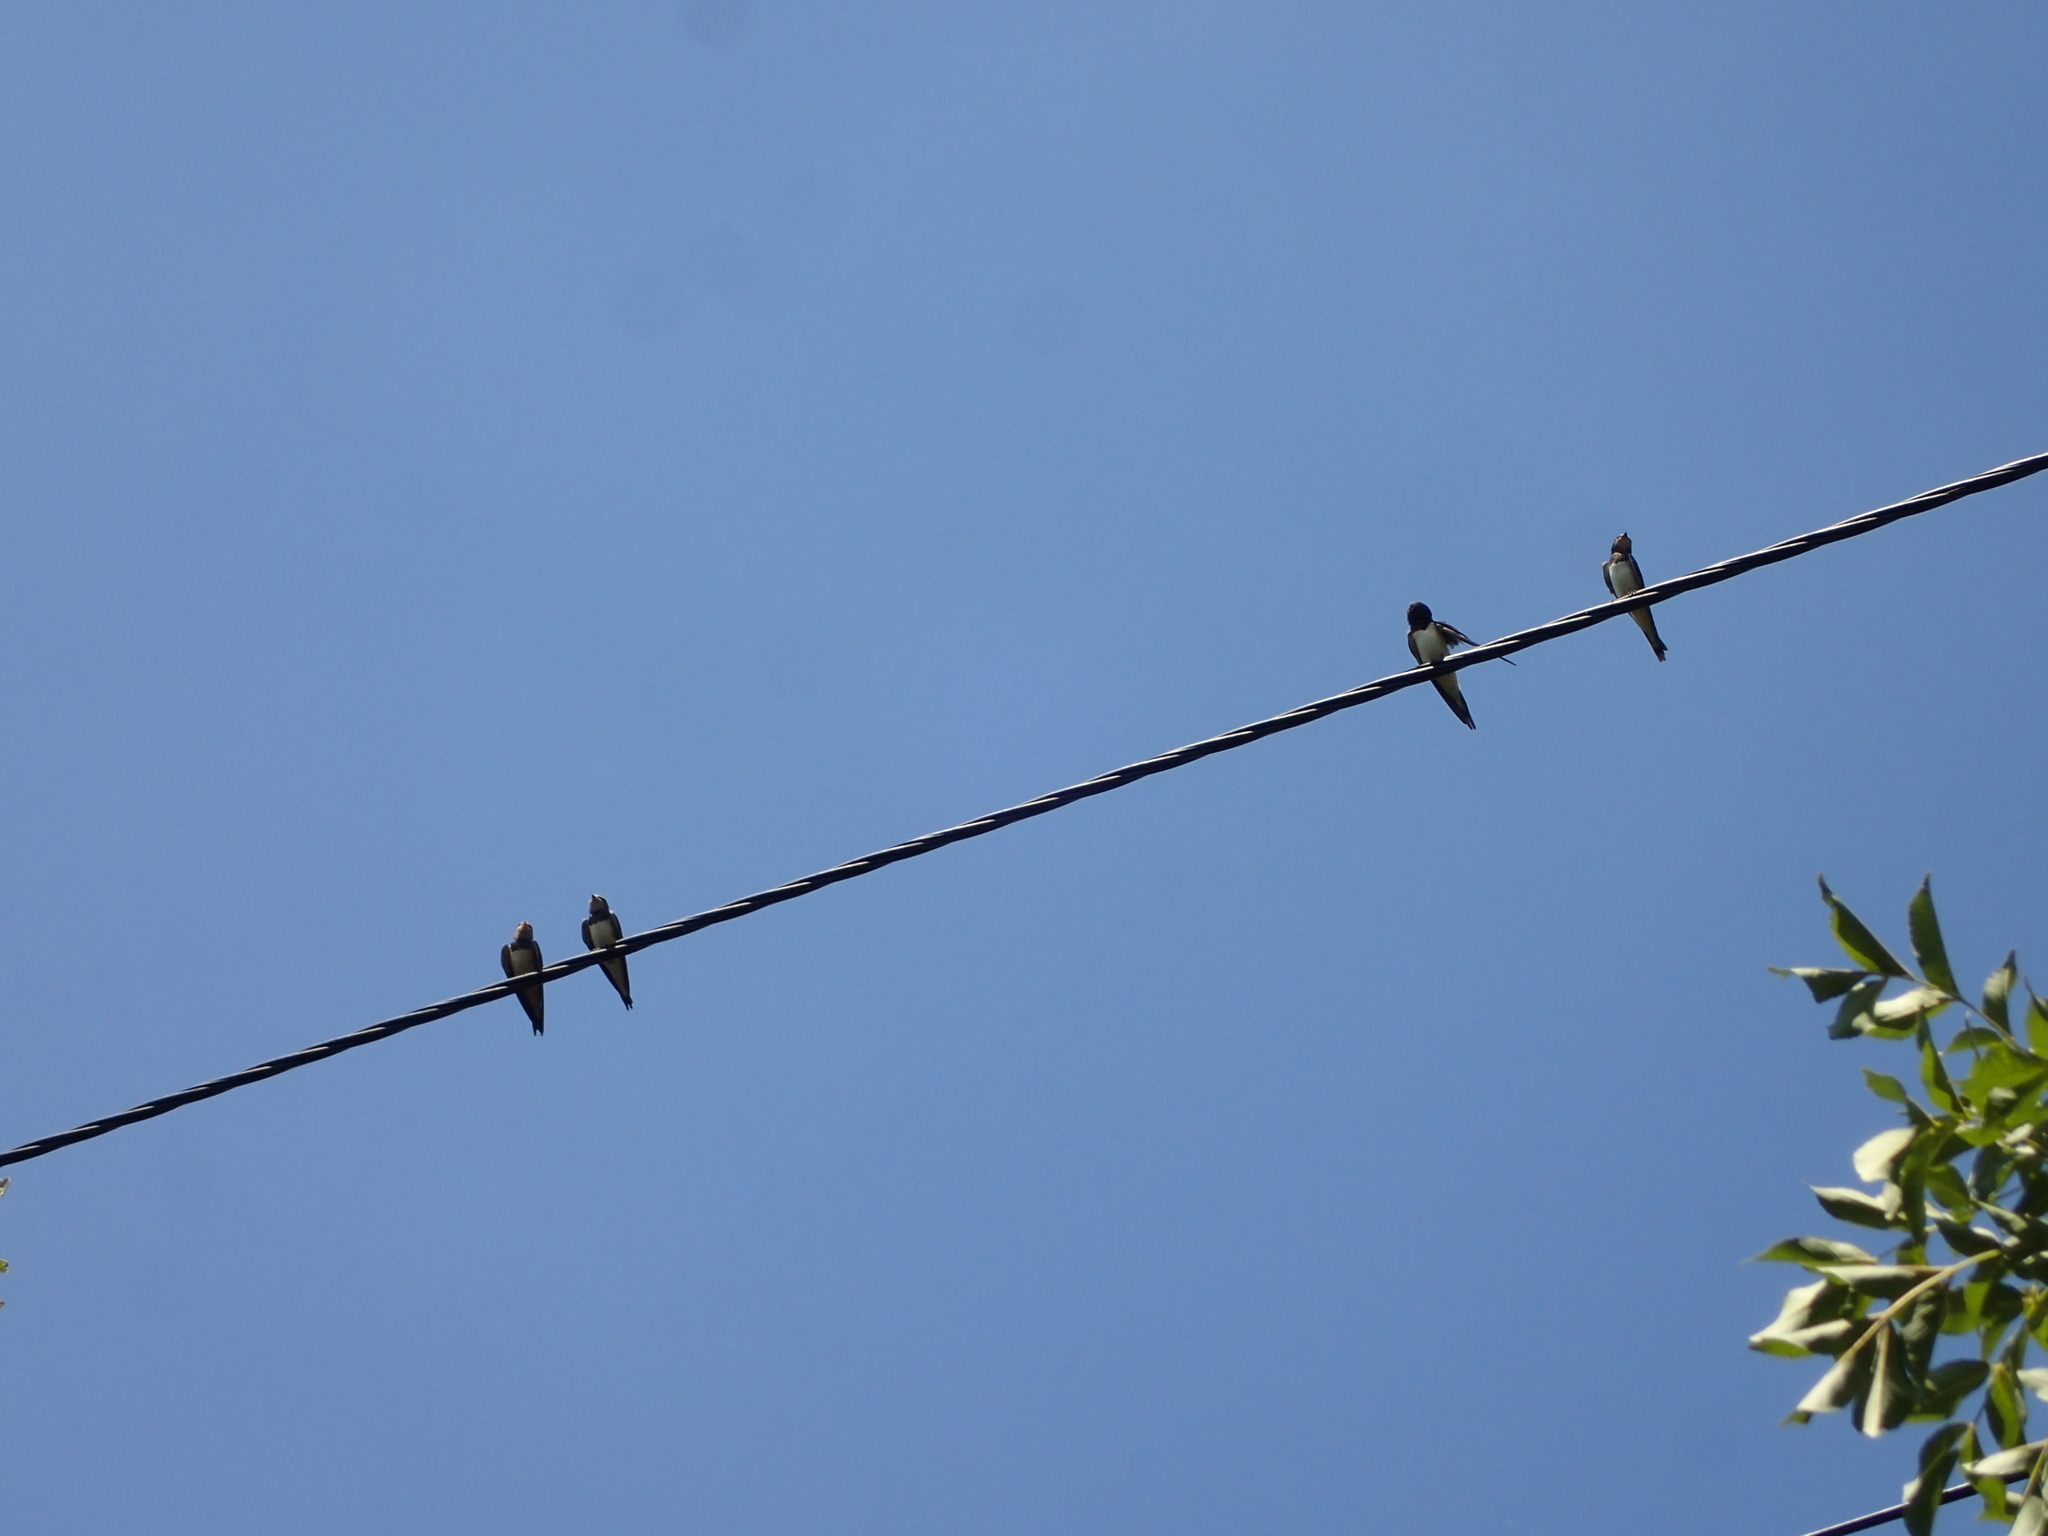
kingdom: Animalia
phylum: Chordata
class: Aves
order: Passeriformes
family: Hirundinidae
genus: Hirundo
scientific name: Hirundo rustica
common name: Barn swallow
